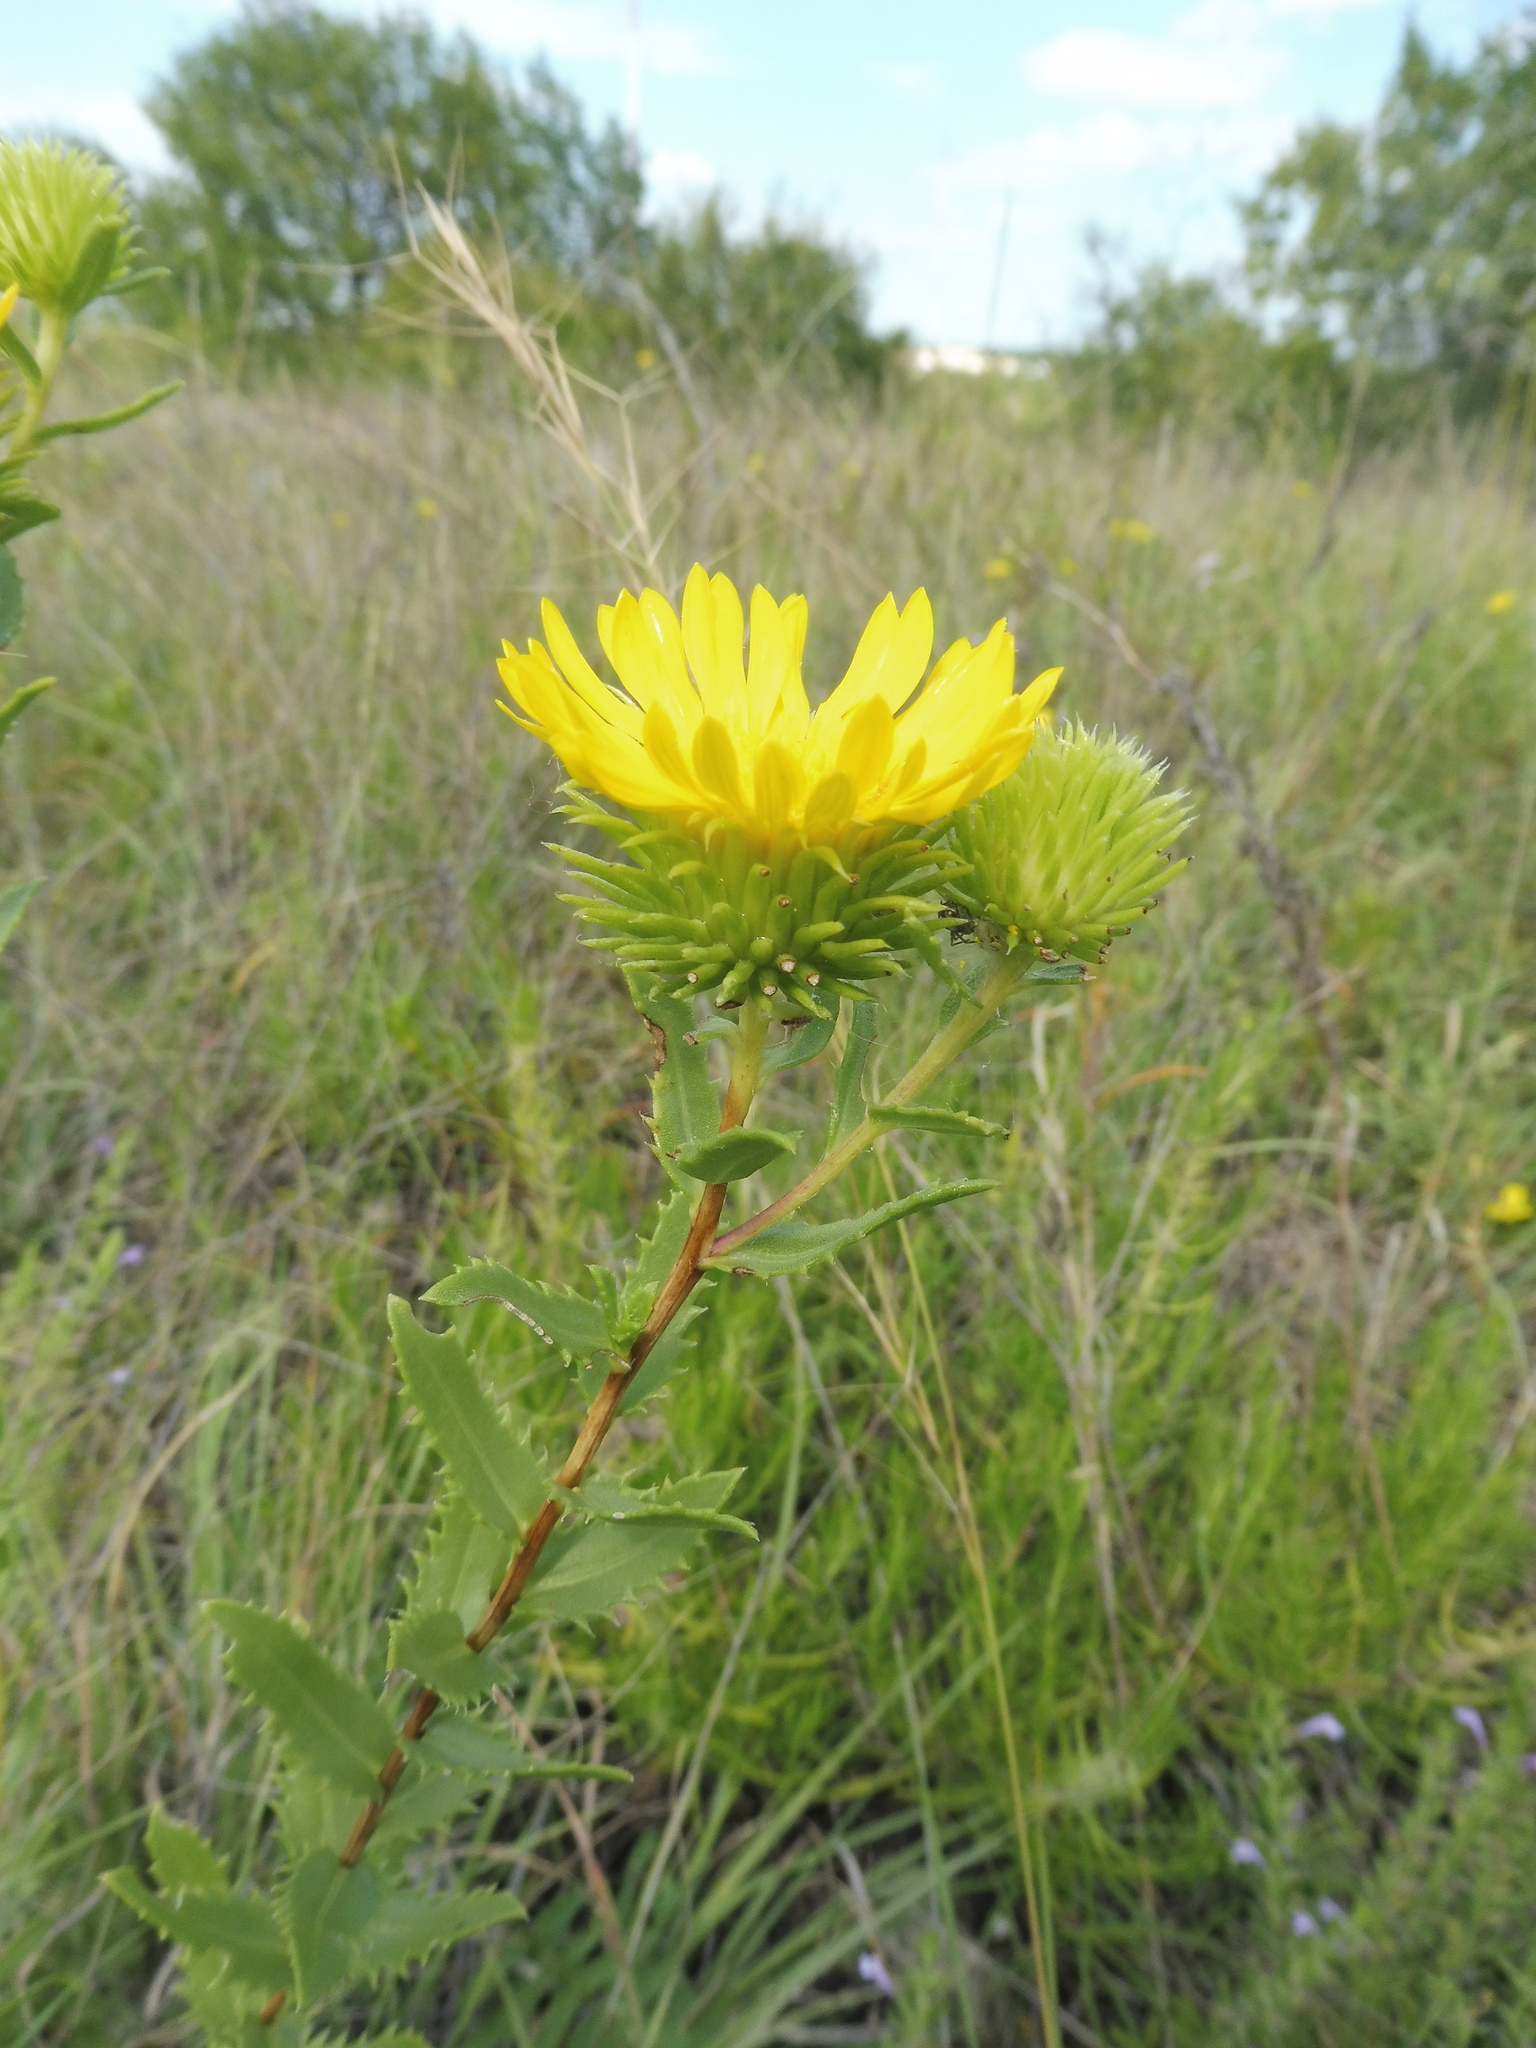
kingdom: Plantae
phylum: Tracheophyta
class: Magnoliopsida
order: Asterales
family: Asteraceae
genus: Grindelia
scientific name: Grindelia lanceolata
